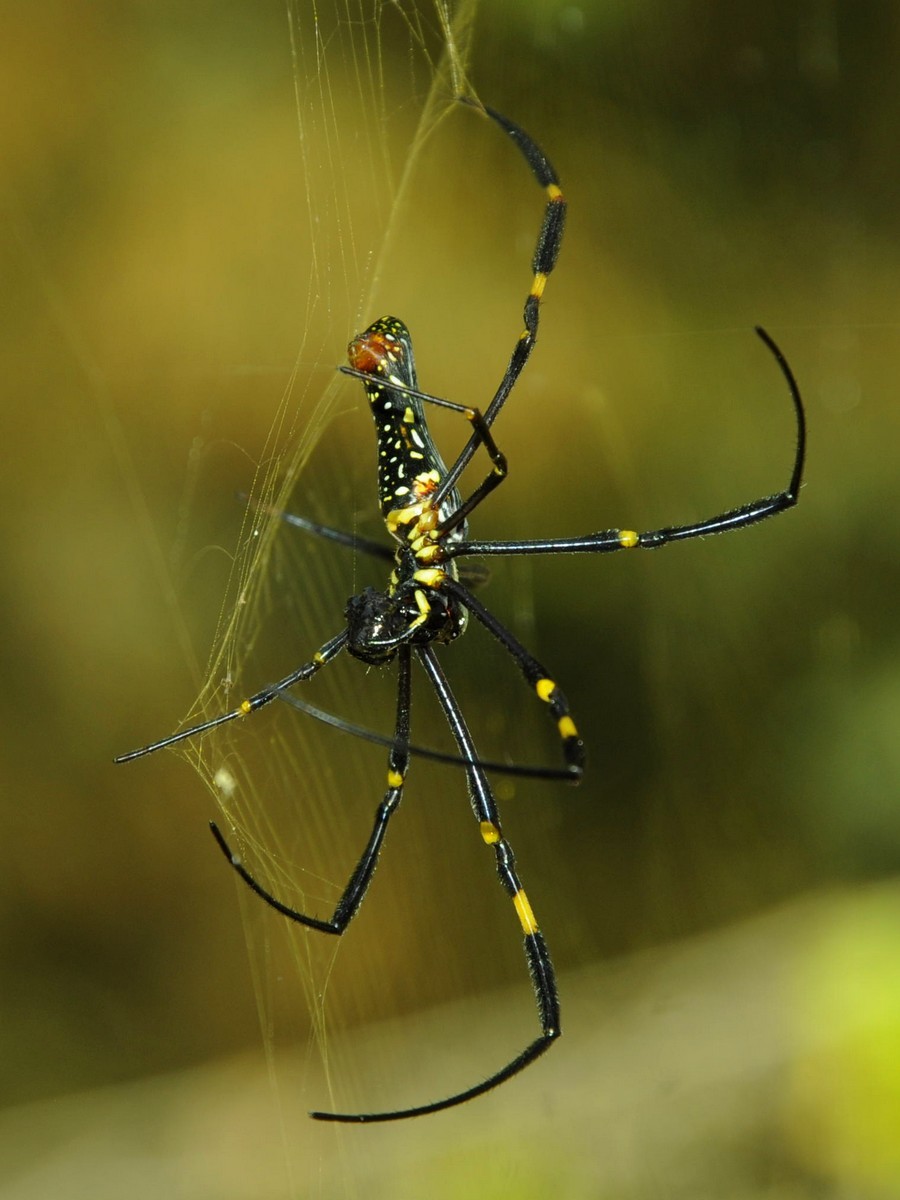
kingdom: Animalia
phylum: Arthropoda
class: Arachnida
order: Araneae
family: Araneidae
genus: Nephila
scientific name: Nephila pilipes
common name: Giant golden orb weaver
